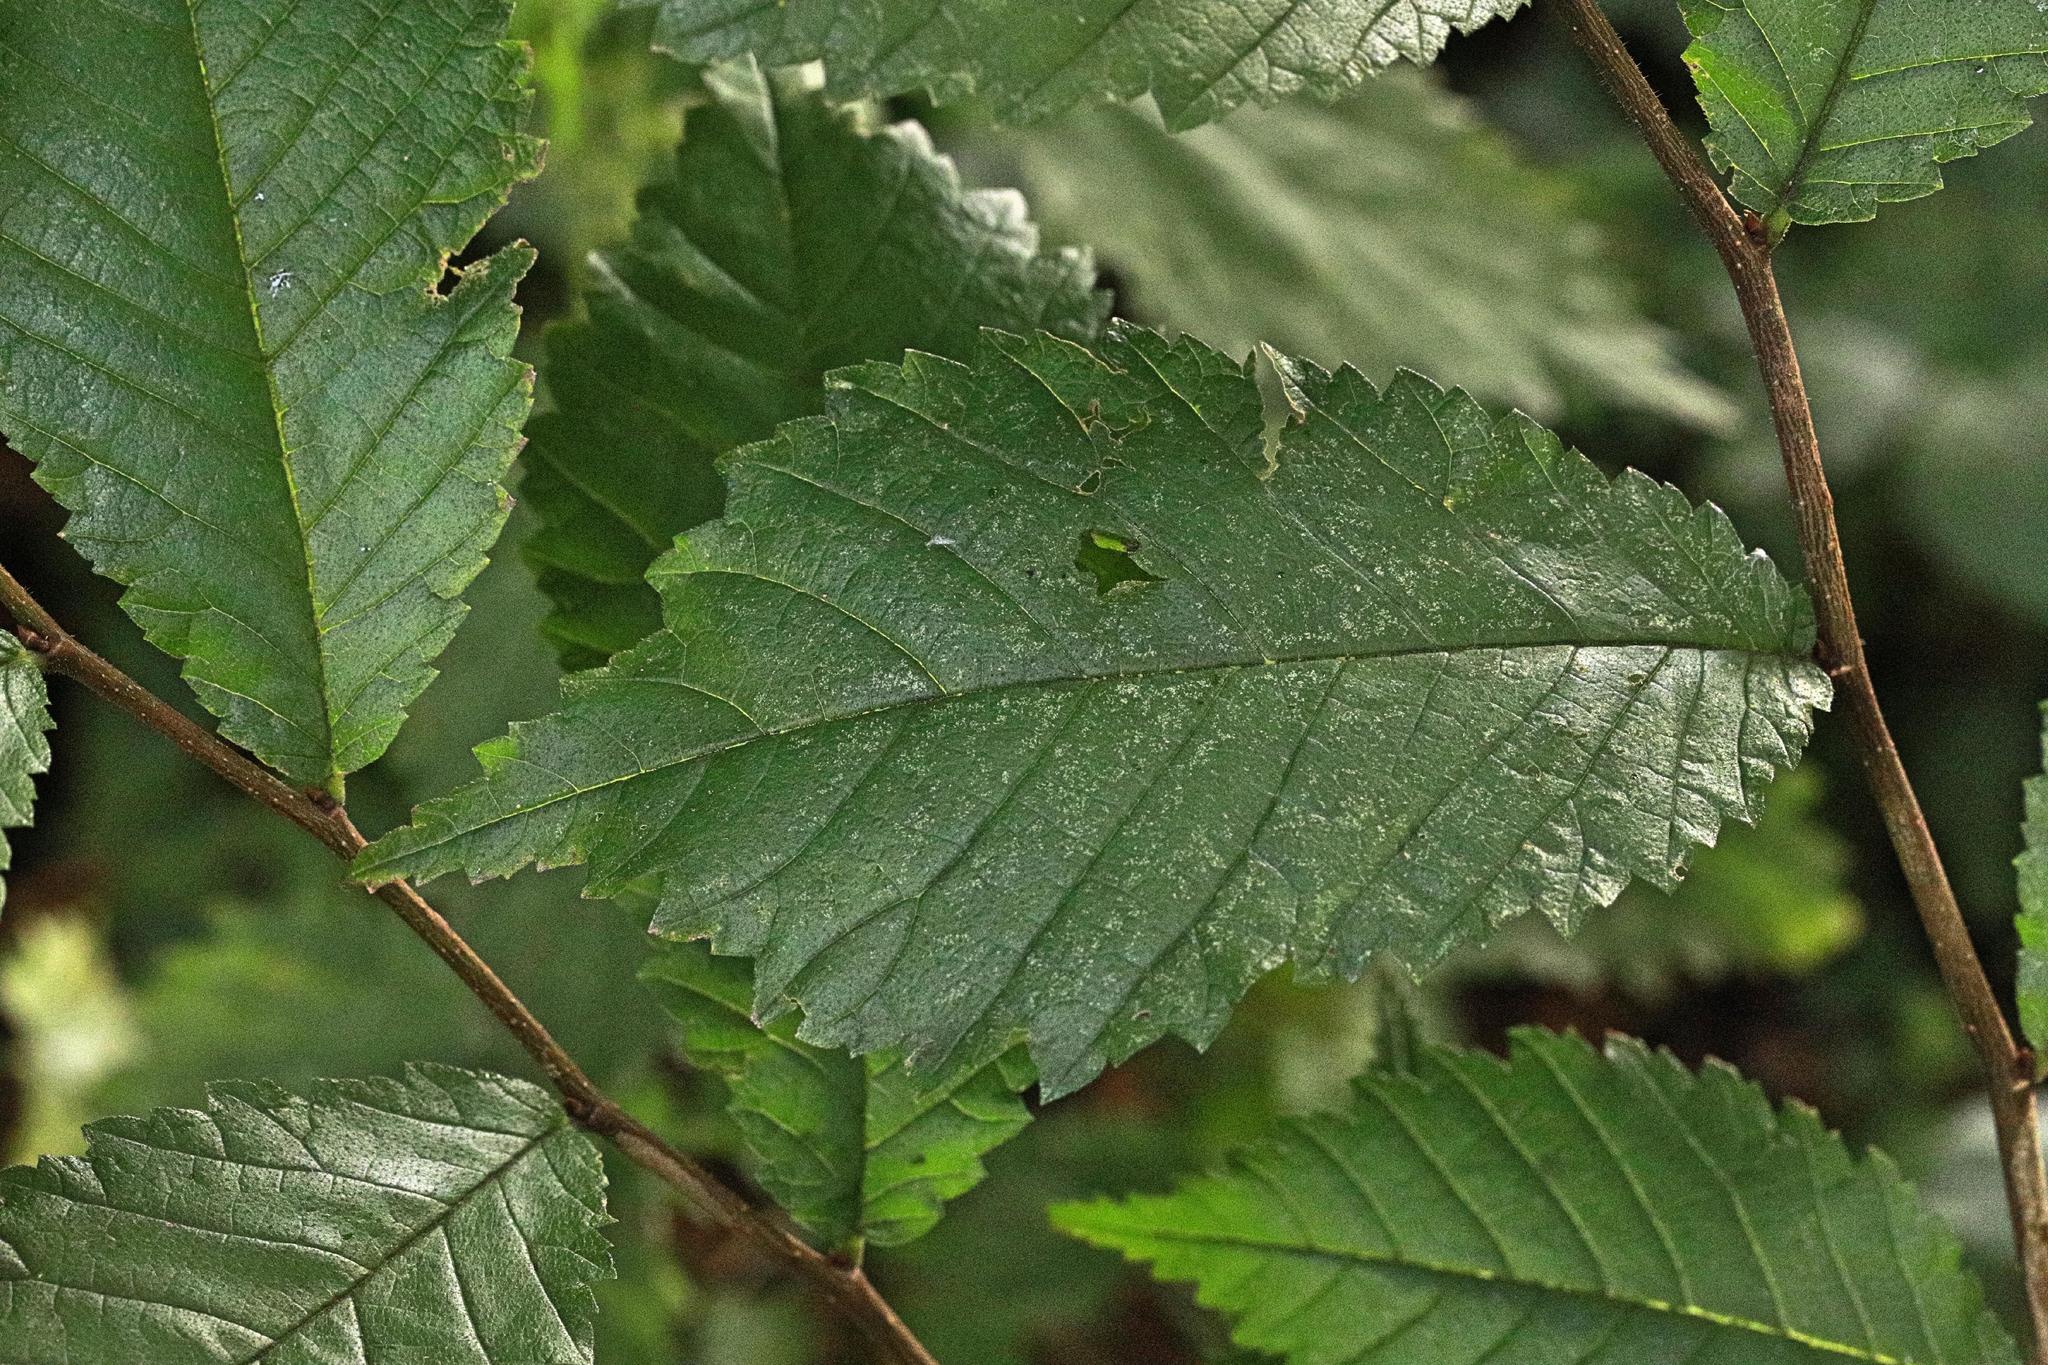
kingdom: Plantae
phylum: Tracheophyta
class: Magnoliopsida
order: Rosales
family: Ulmaceae
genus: Ulmus
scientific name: Ulmus glabra
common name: Wych elm
